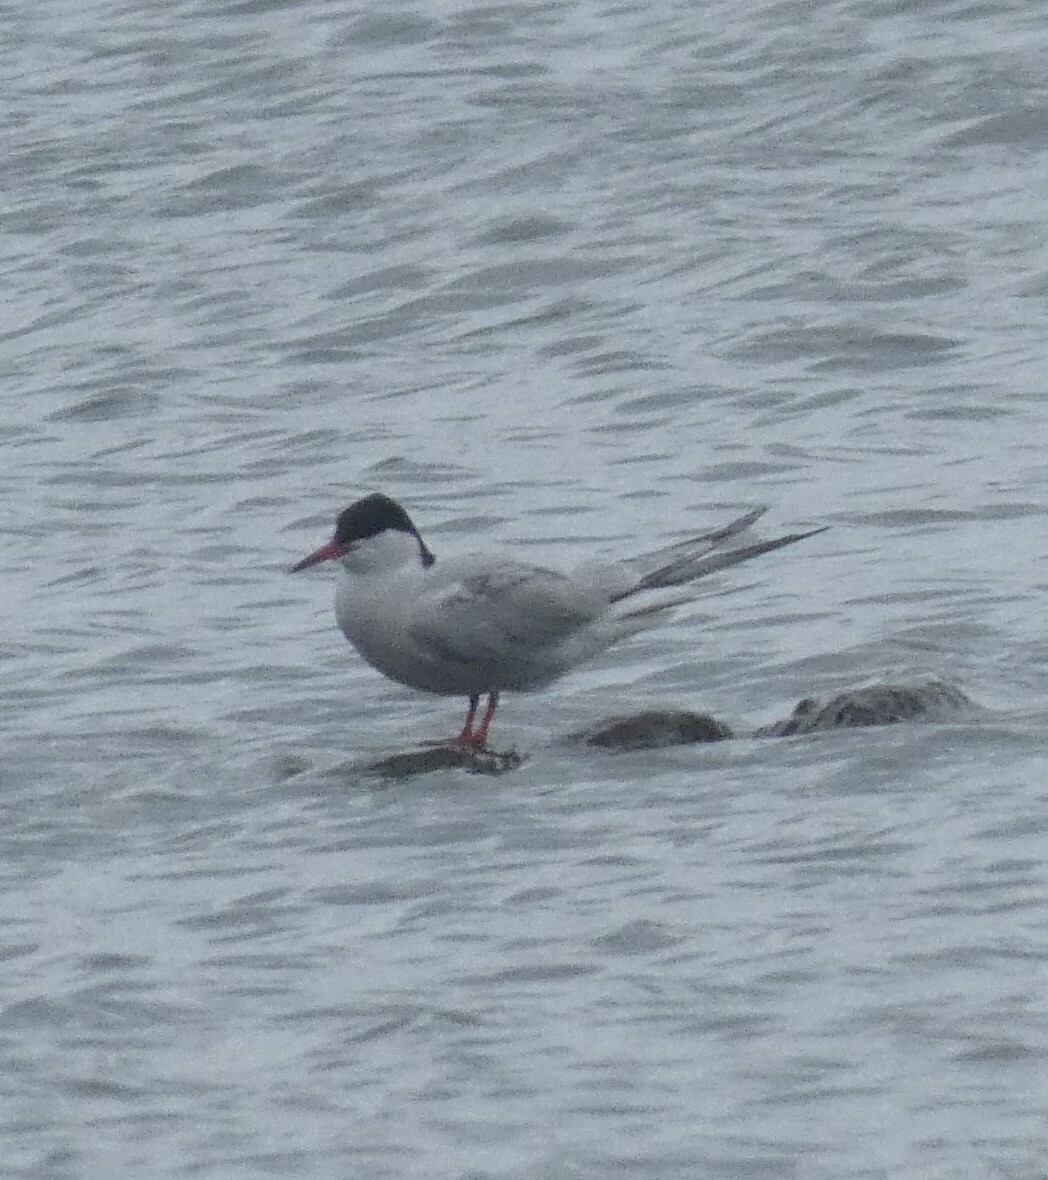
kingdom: Animalia
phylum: Chordata
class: Aves
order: Charadriiformes
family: Laridae
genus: Sterna
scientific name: Sterna hirundo
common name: Common tern
